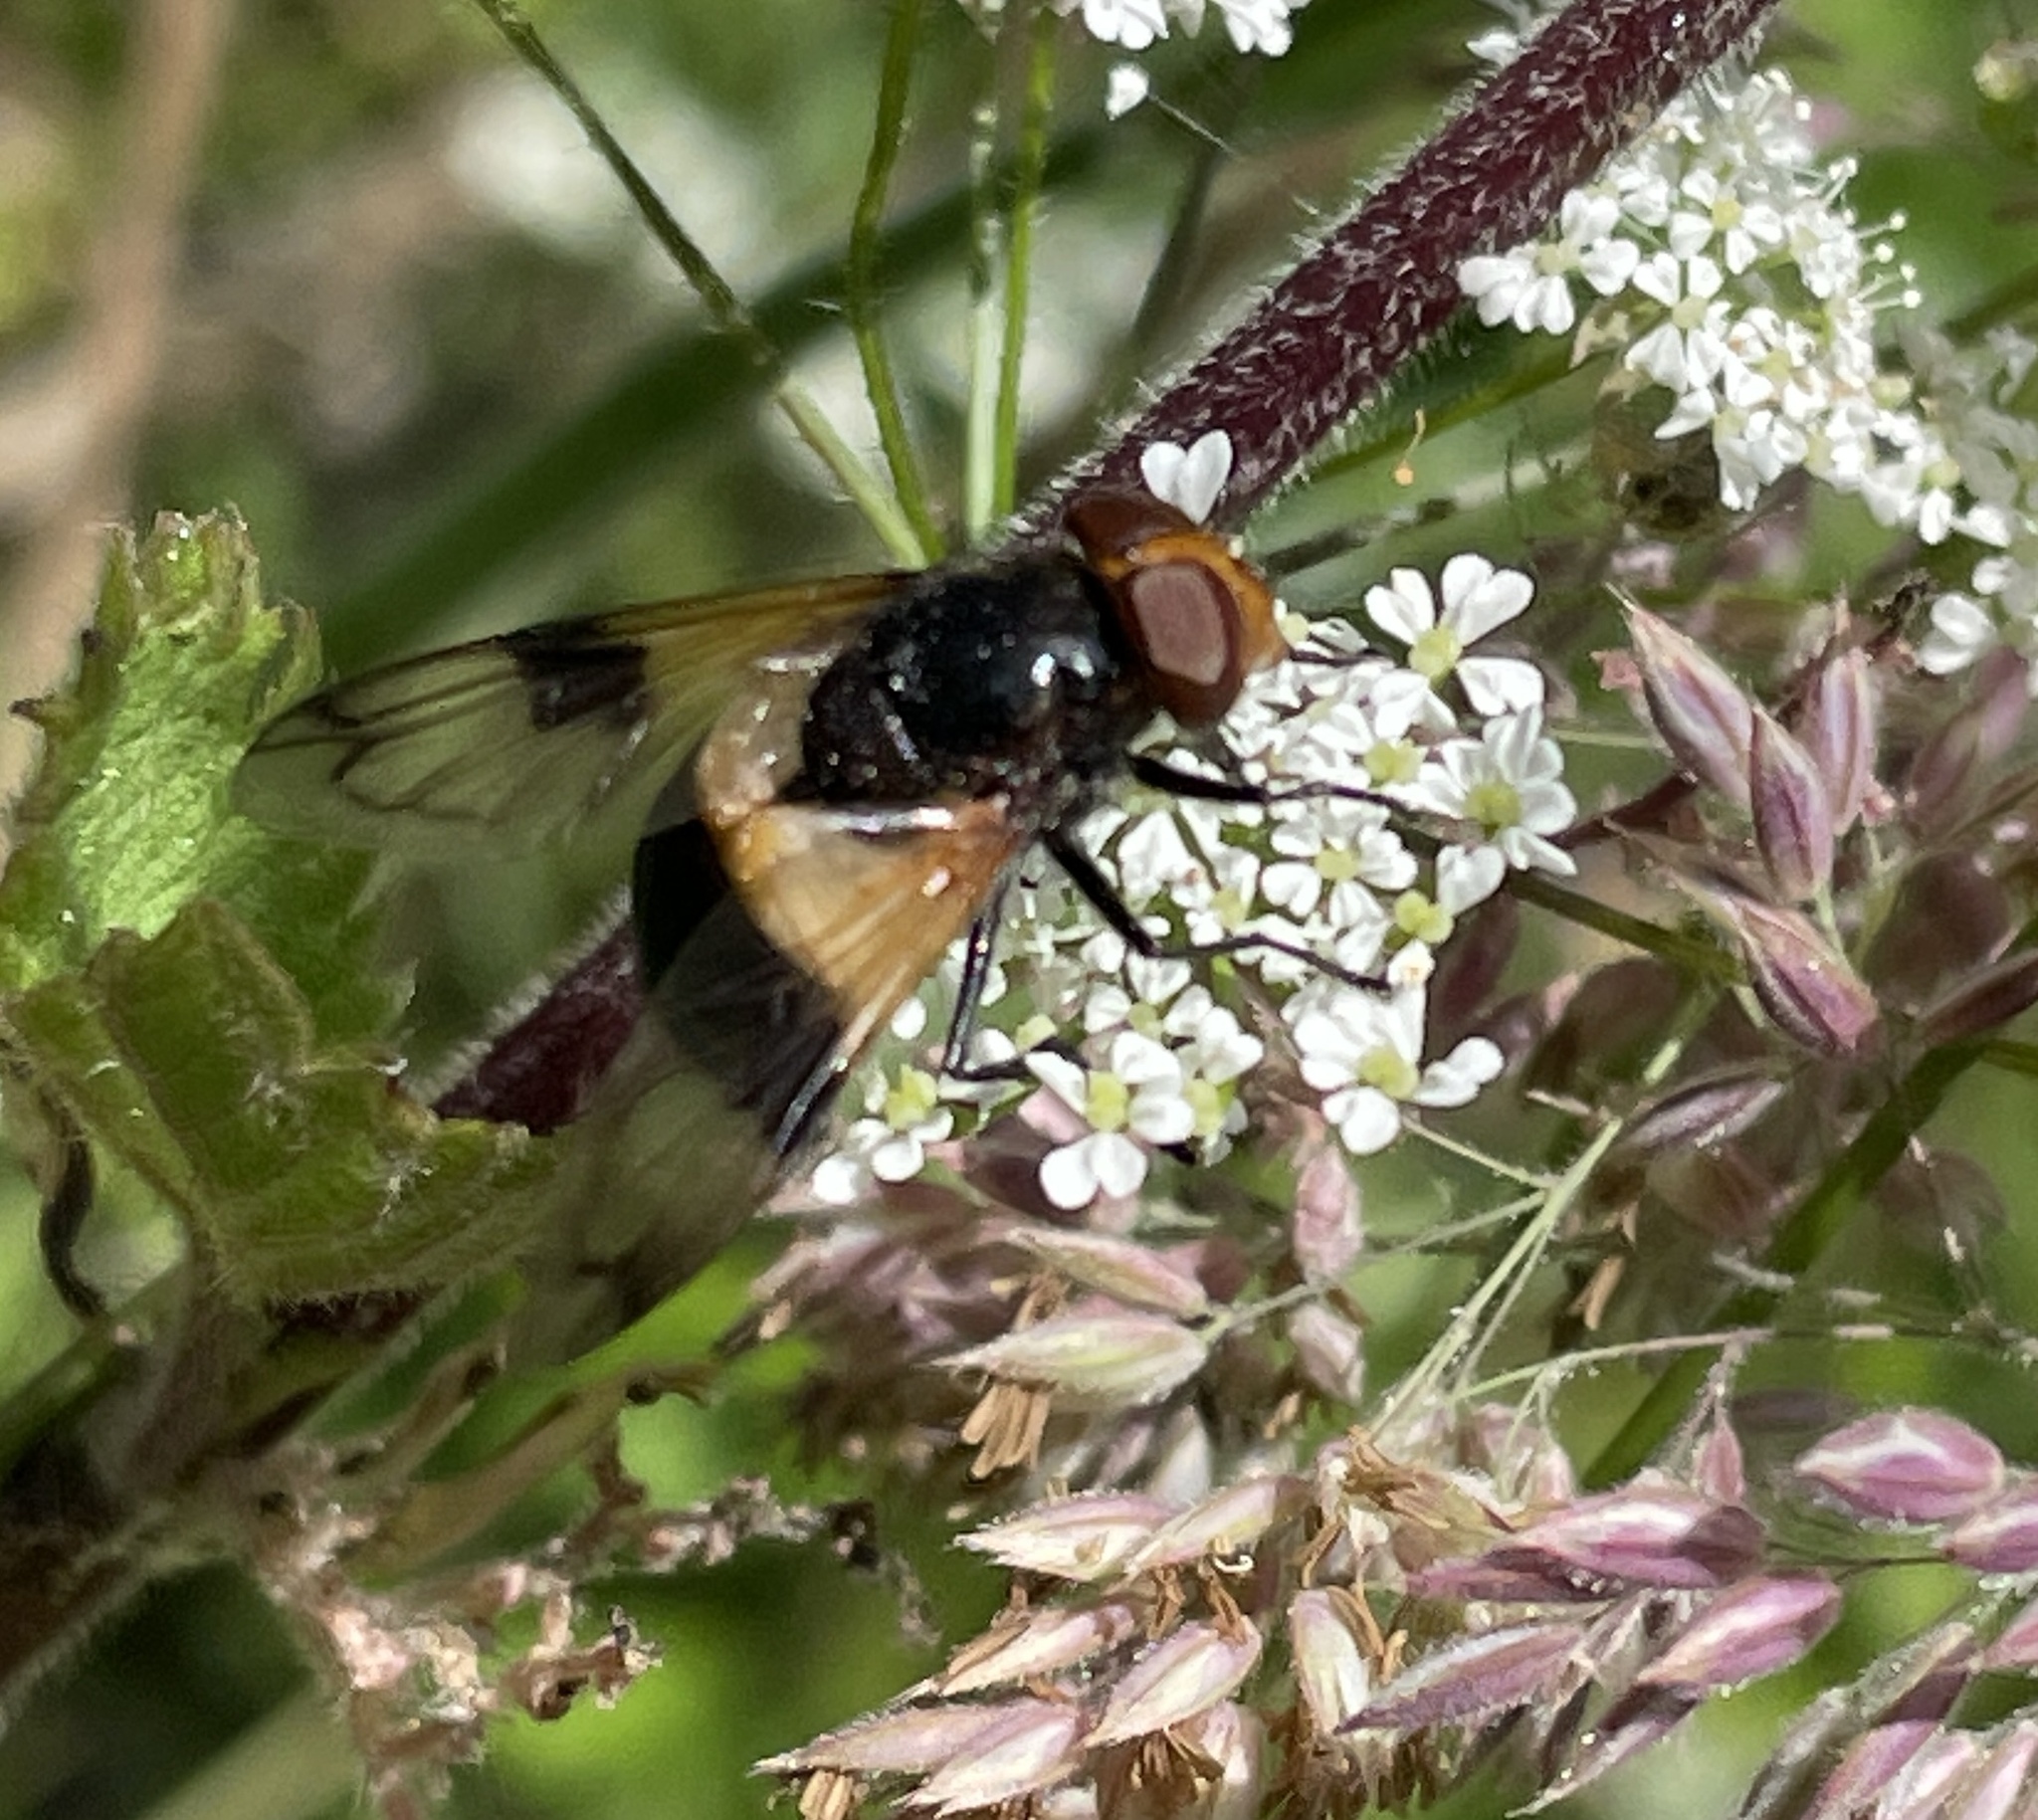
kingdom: Animalia
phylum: Arthropoda
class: Insecta
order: Diptera
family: Syrphidae
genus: Volucella
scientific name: Volucella pellucens
